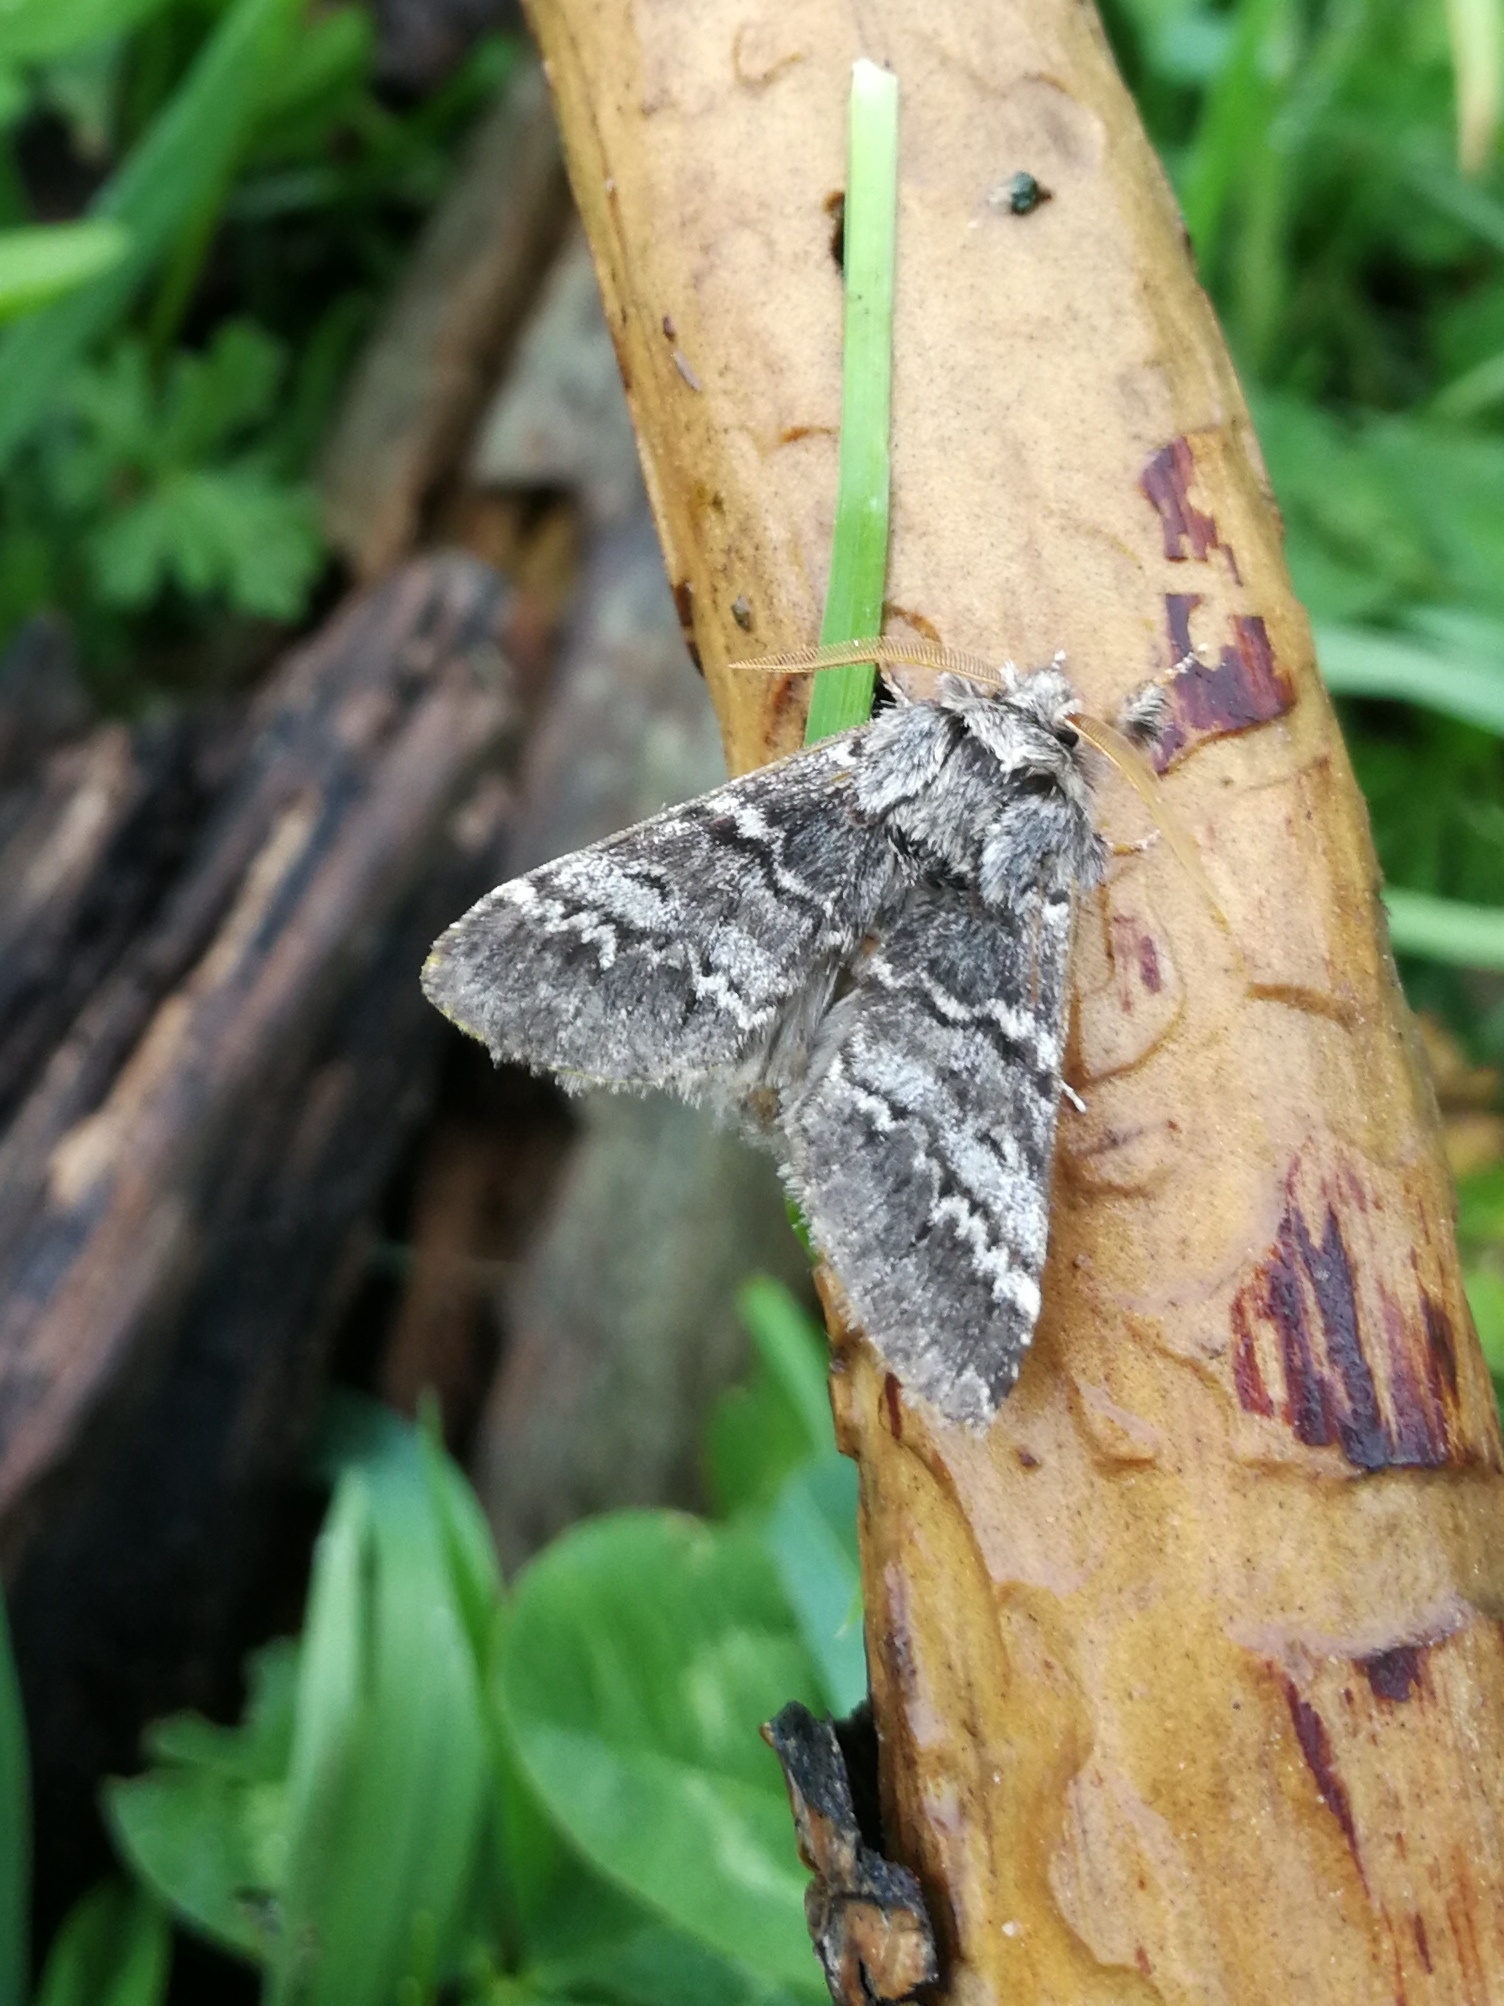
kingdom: Animalia
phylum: Arthropoda
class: Insecta
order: Lepidoptera
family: Notodontidae
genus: Drymonia
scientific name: Drymonia ruficornis
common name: Lunar marbled brown
